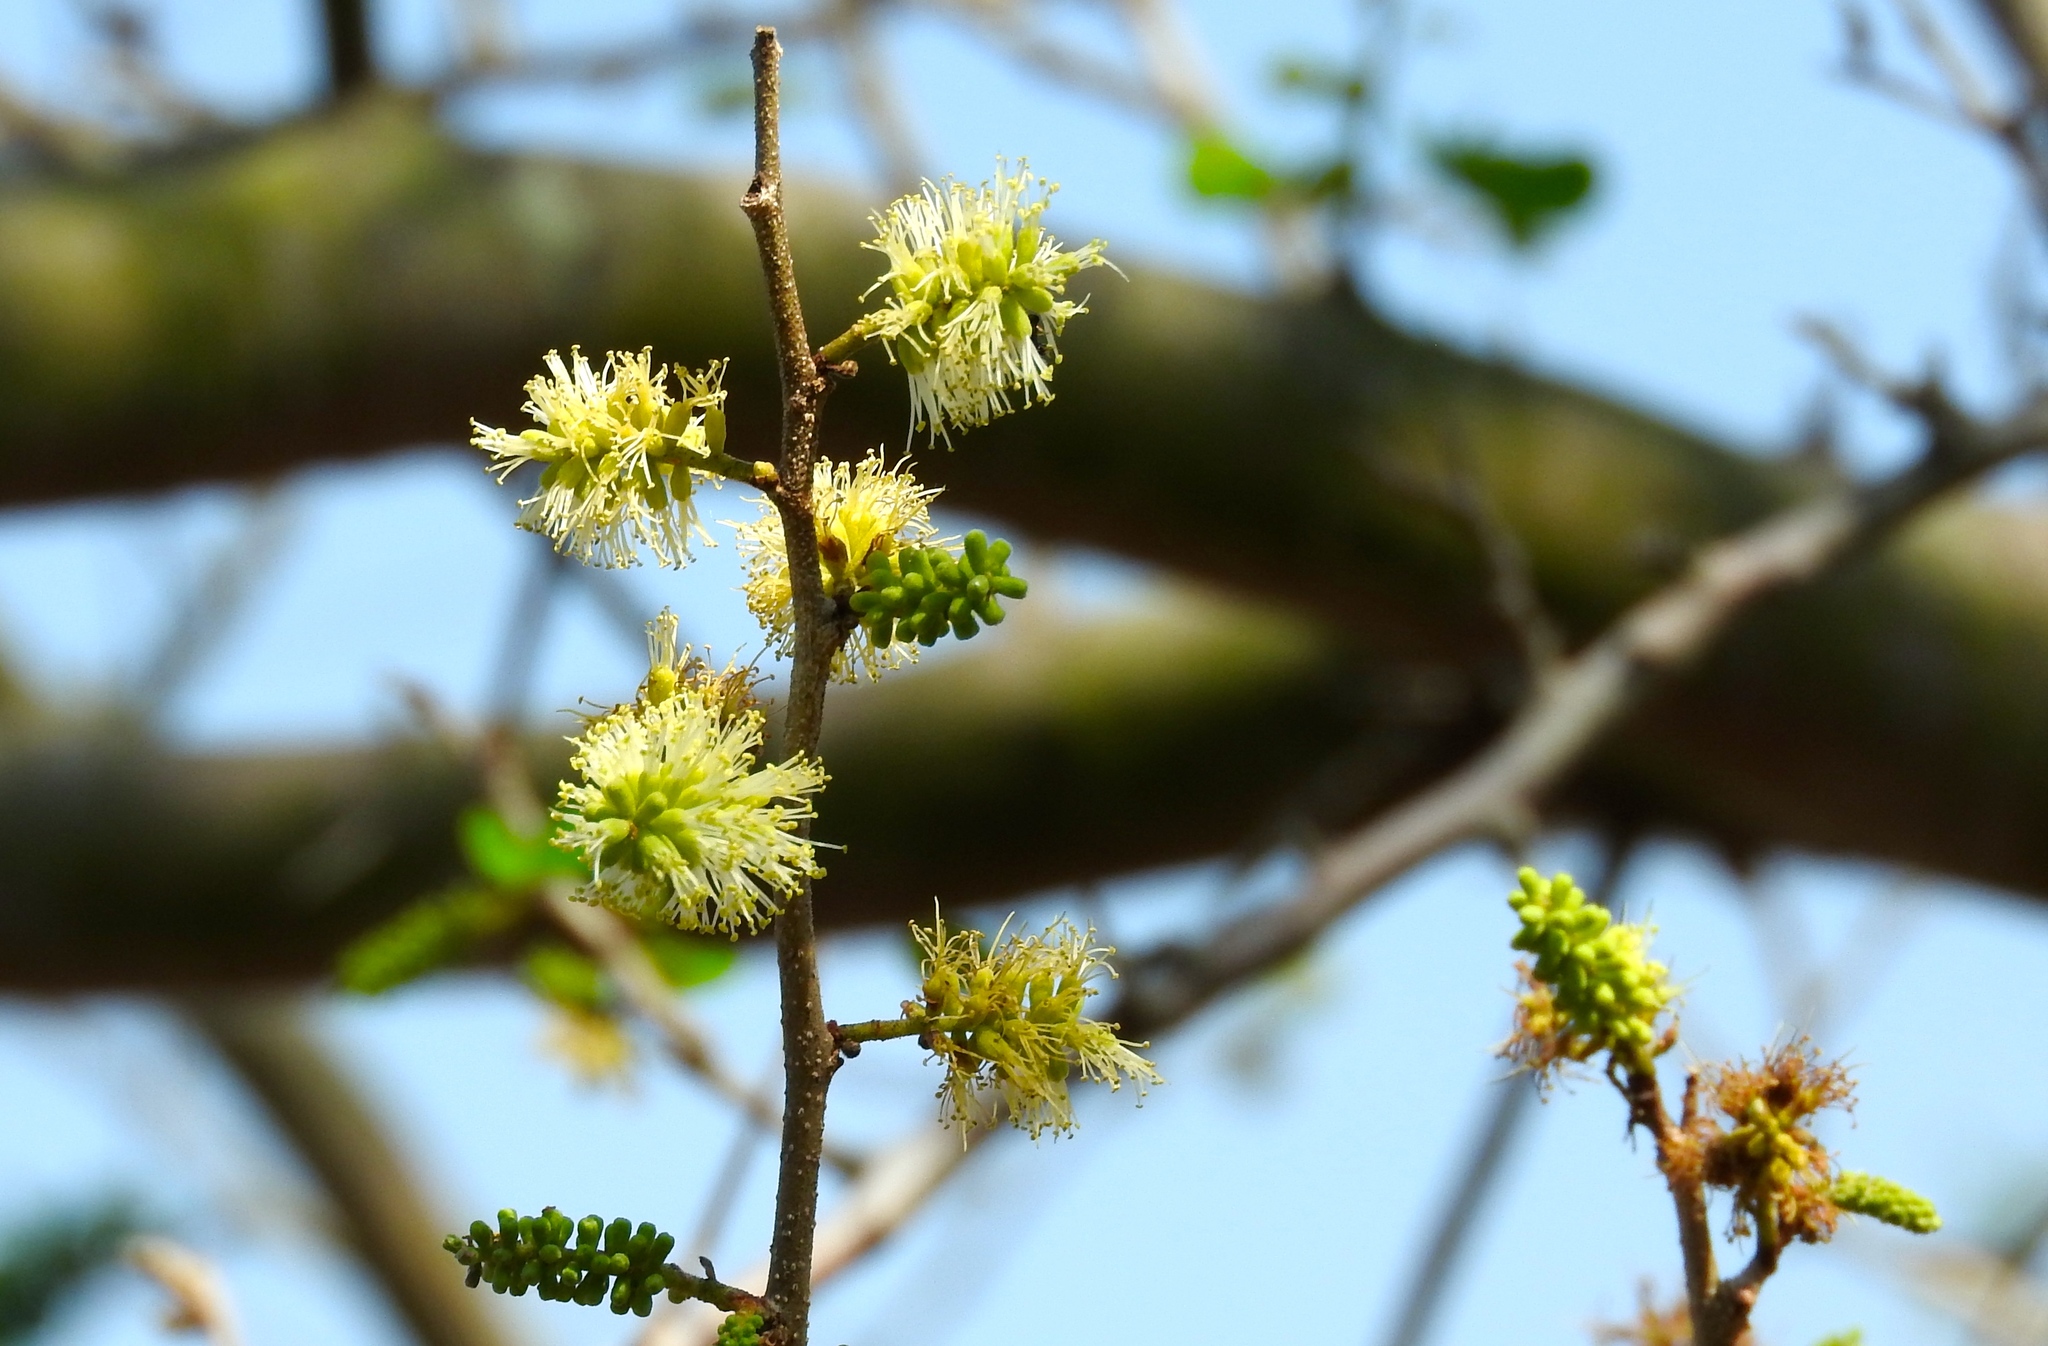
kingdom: Plantae
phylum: Tracheophyta
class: Magnoliopsida
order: Fabales
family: Fabaceae
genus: Microlobius
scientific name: Microlobius foetidus
